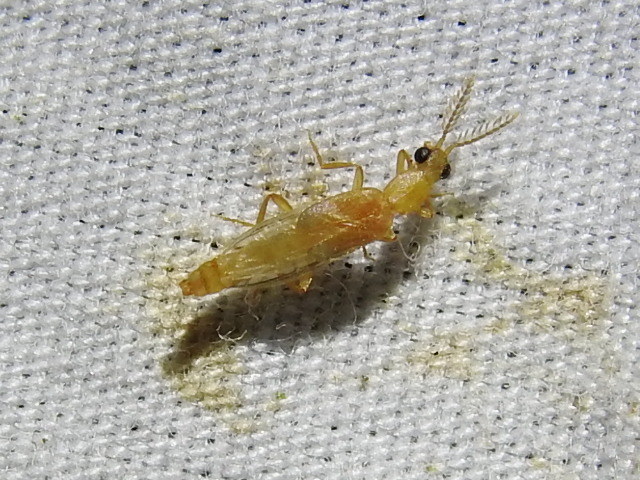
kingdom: Animalia
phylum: Arthropoda
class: Insecta
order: Coleoptera
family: Phengodidae
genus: Cenophengus
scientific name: Cenophengus pallidus
